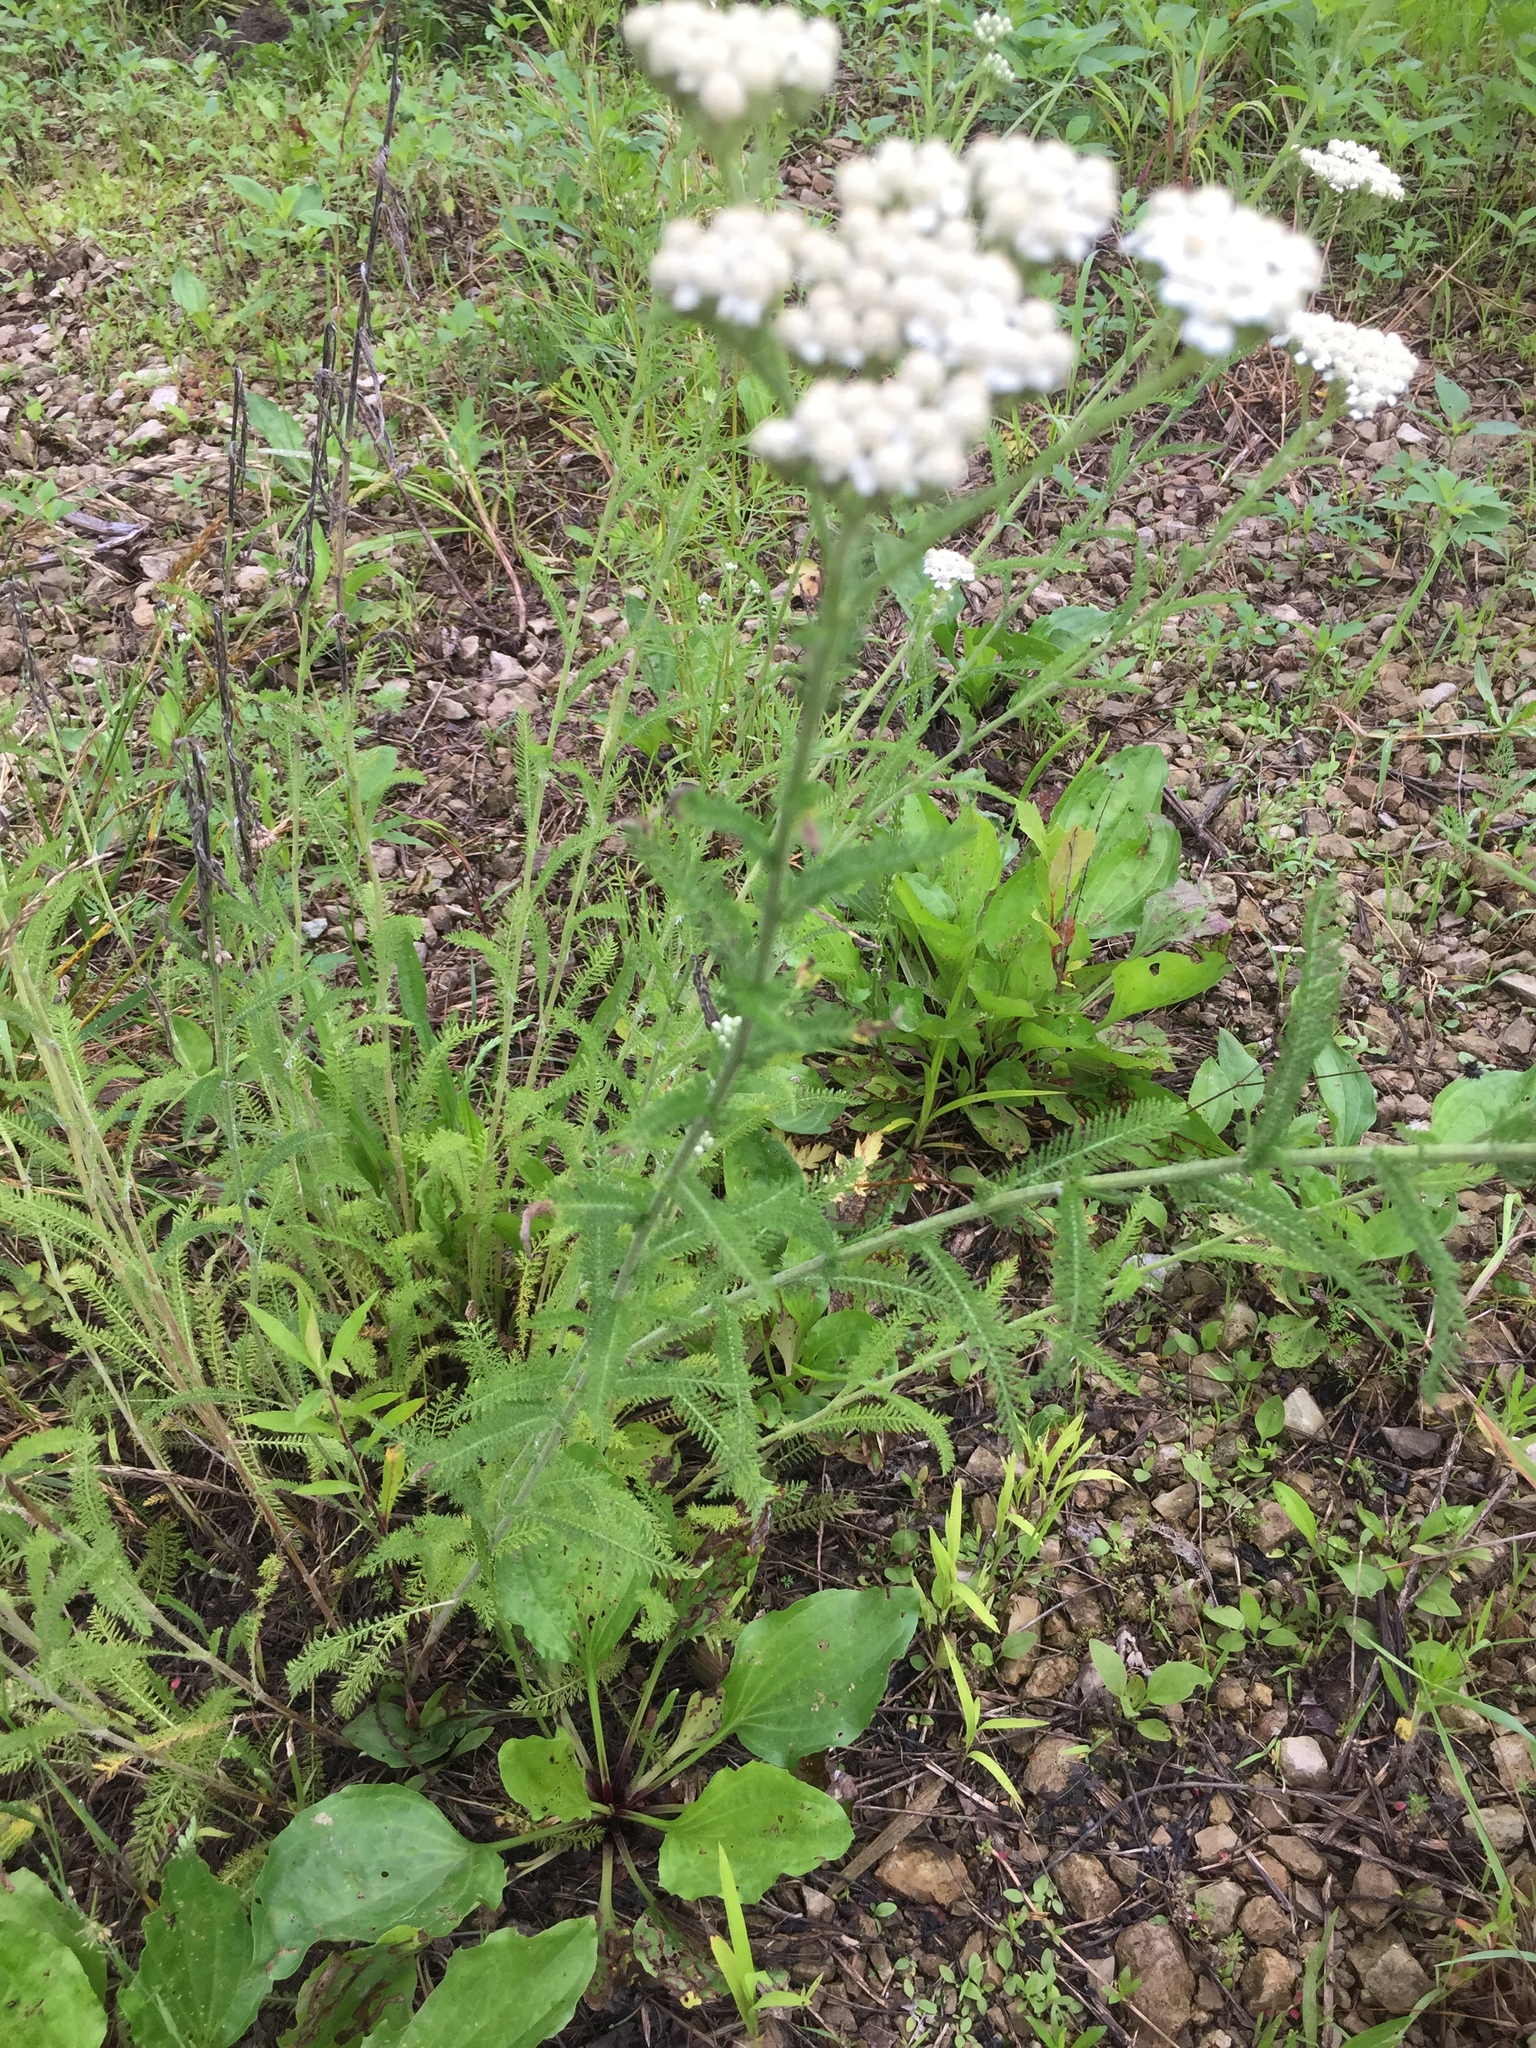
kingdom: Plantae
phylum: Tracheophyta
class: Magnoliopsida
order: Asterales
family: Asteraceae
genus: Achillea
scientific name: Achillea millefolium
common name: Yarrow
